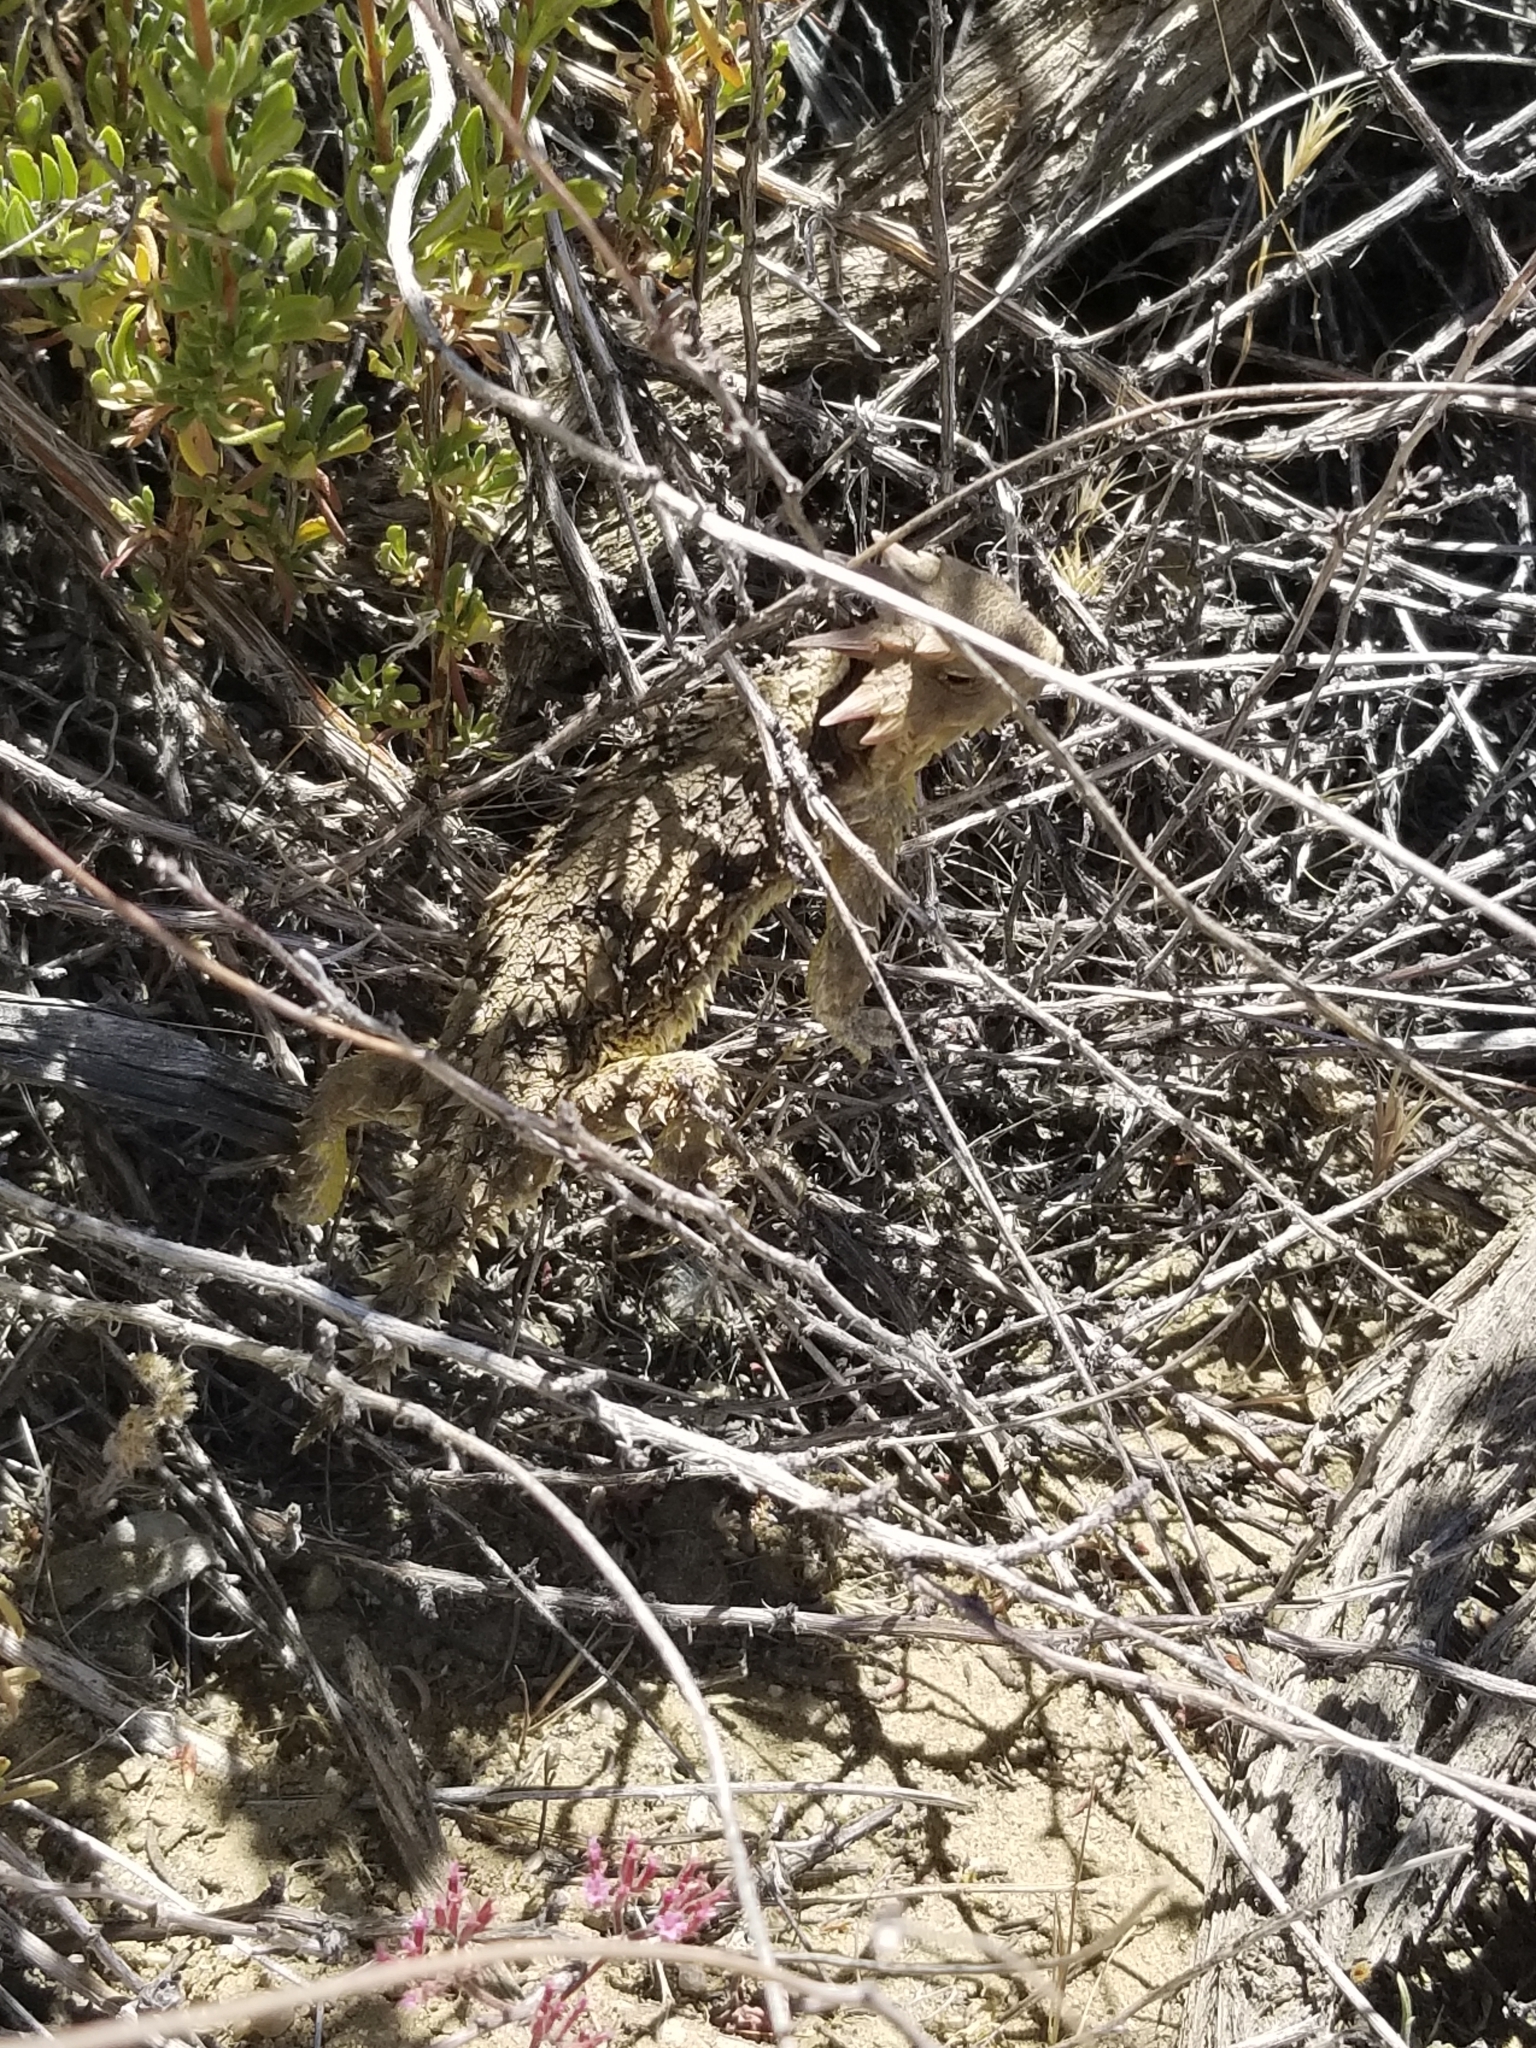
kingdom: Animalia
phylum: Chordata
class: Squamata
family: Phrynosomatidae
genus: Phrynosoma
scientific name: Phrynosoma blainvillii
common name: San diego horned lizard
